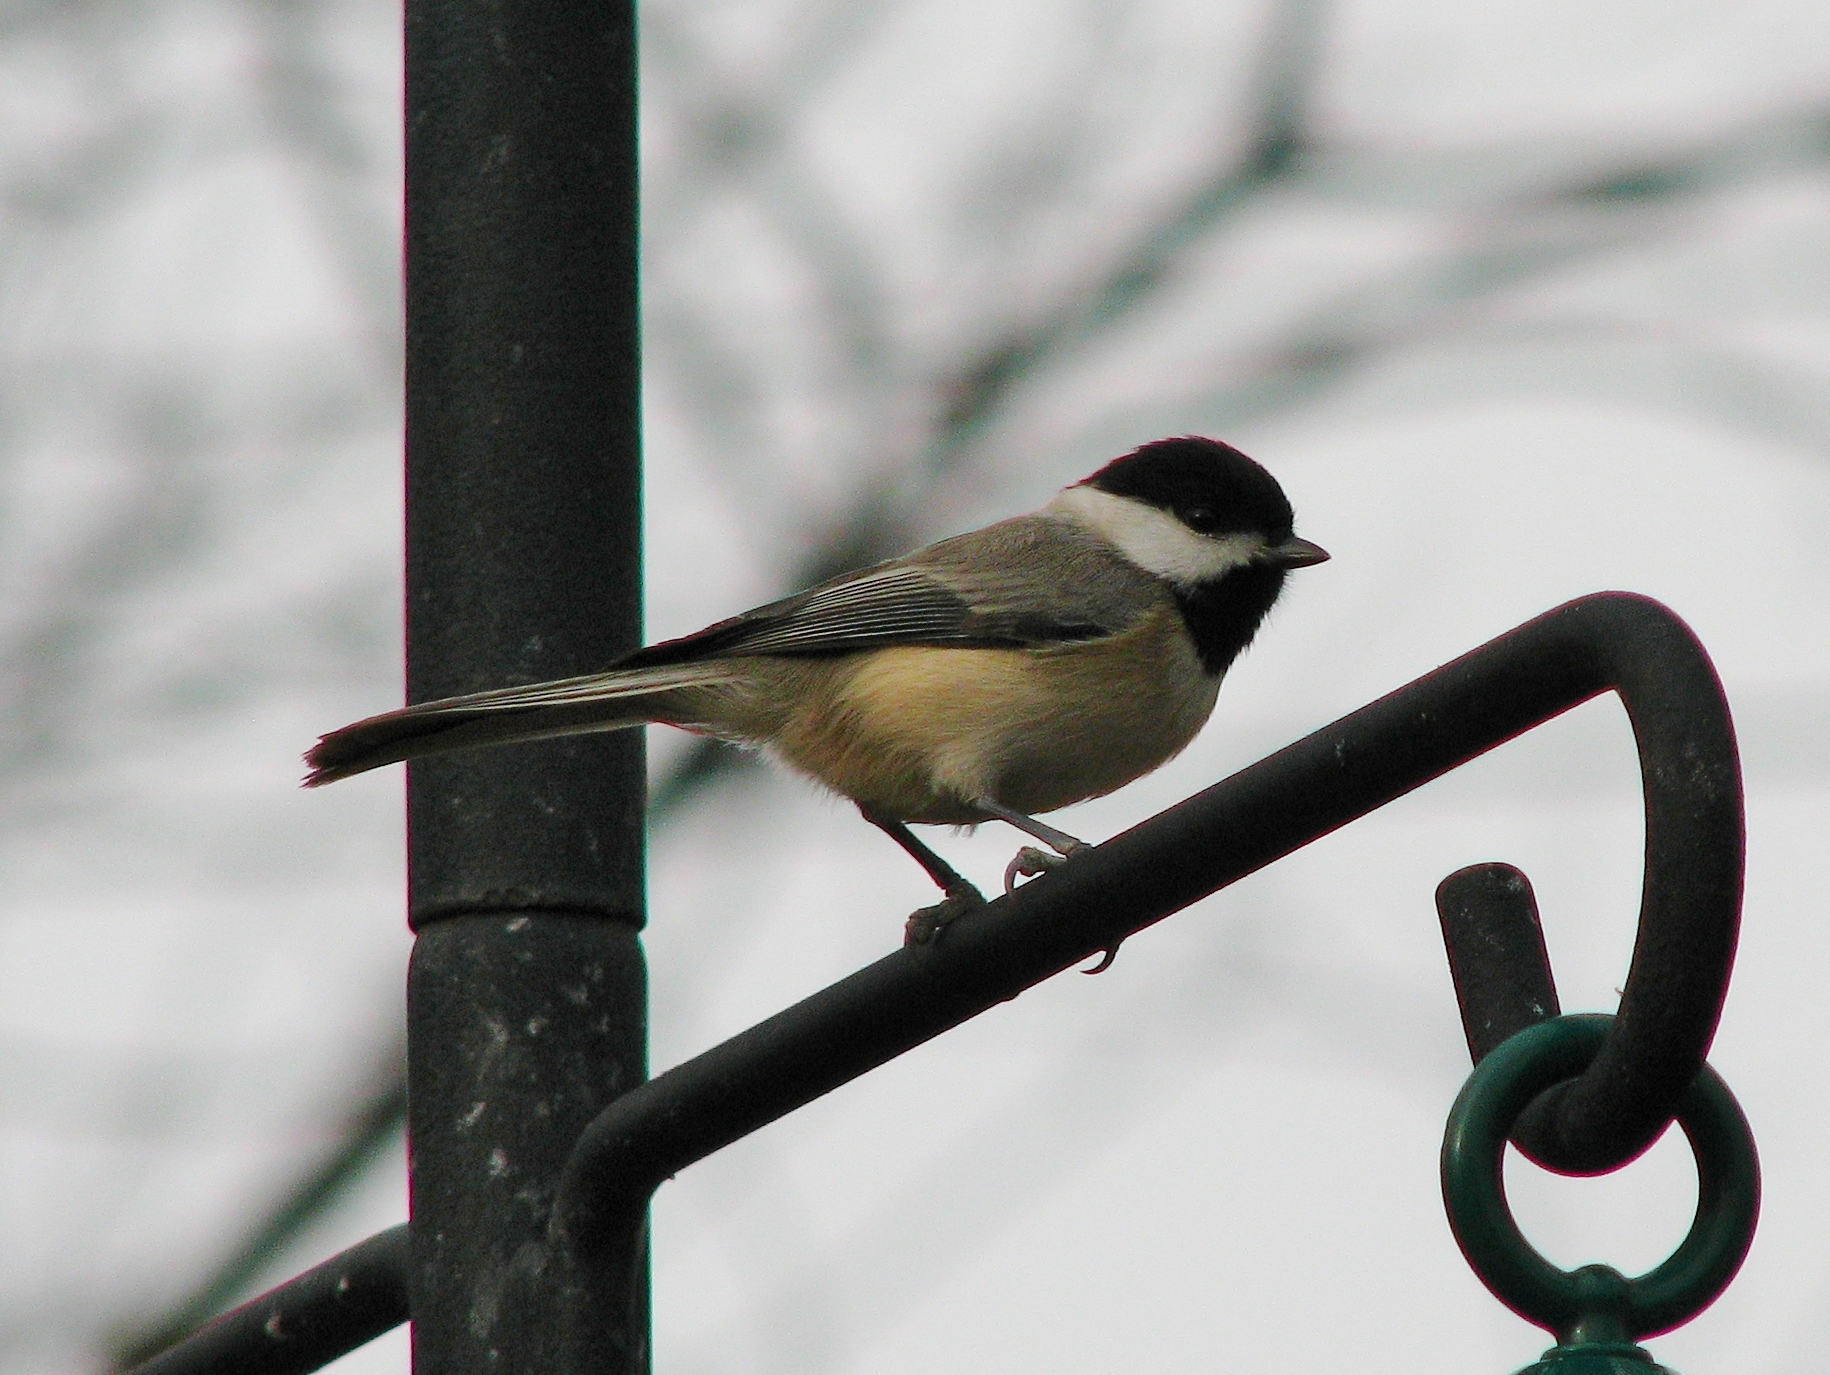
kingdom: Animalia
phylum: Chordata
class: Aves
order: Passeriformes
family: Paridae
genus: Poecile
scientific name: Poecile carolinensis
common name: Carolina chickadee
